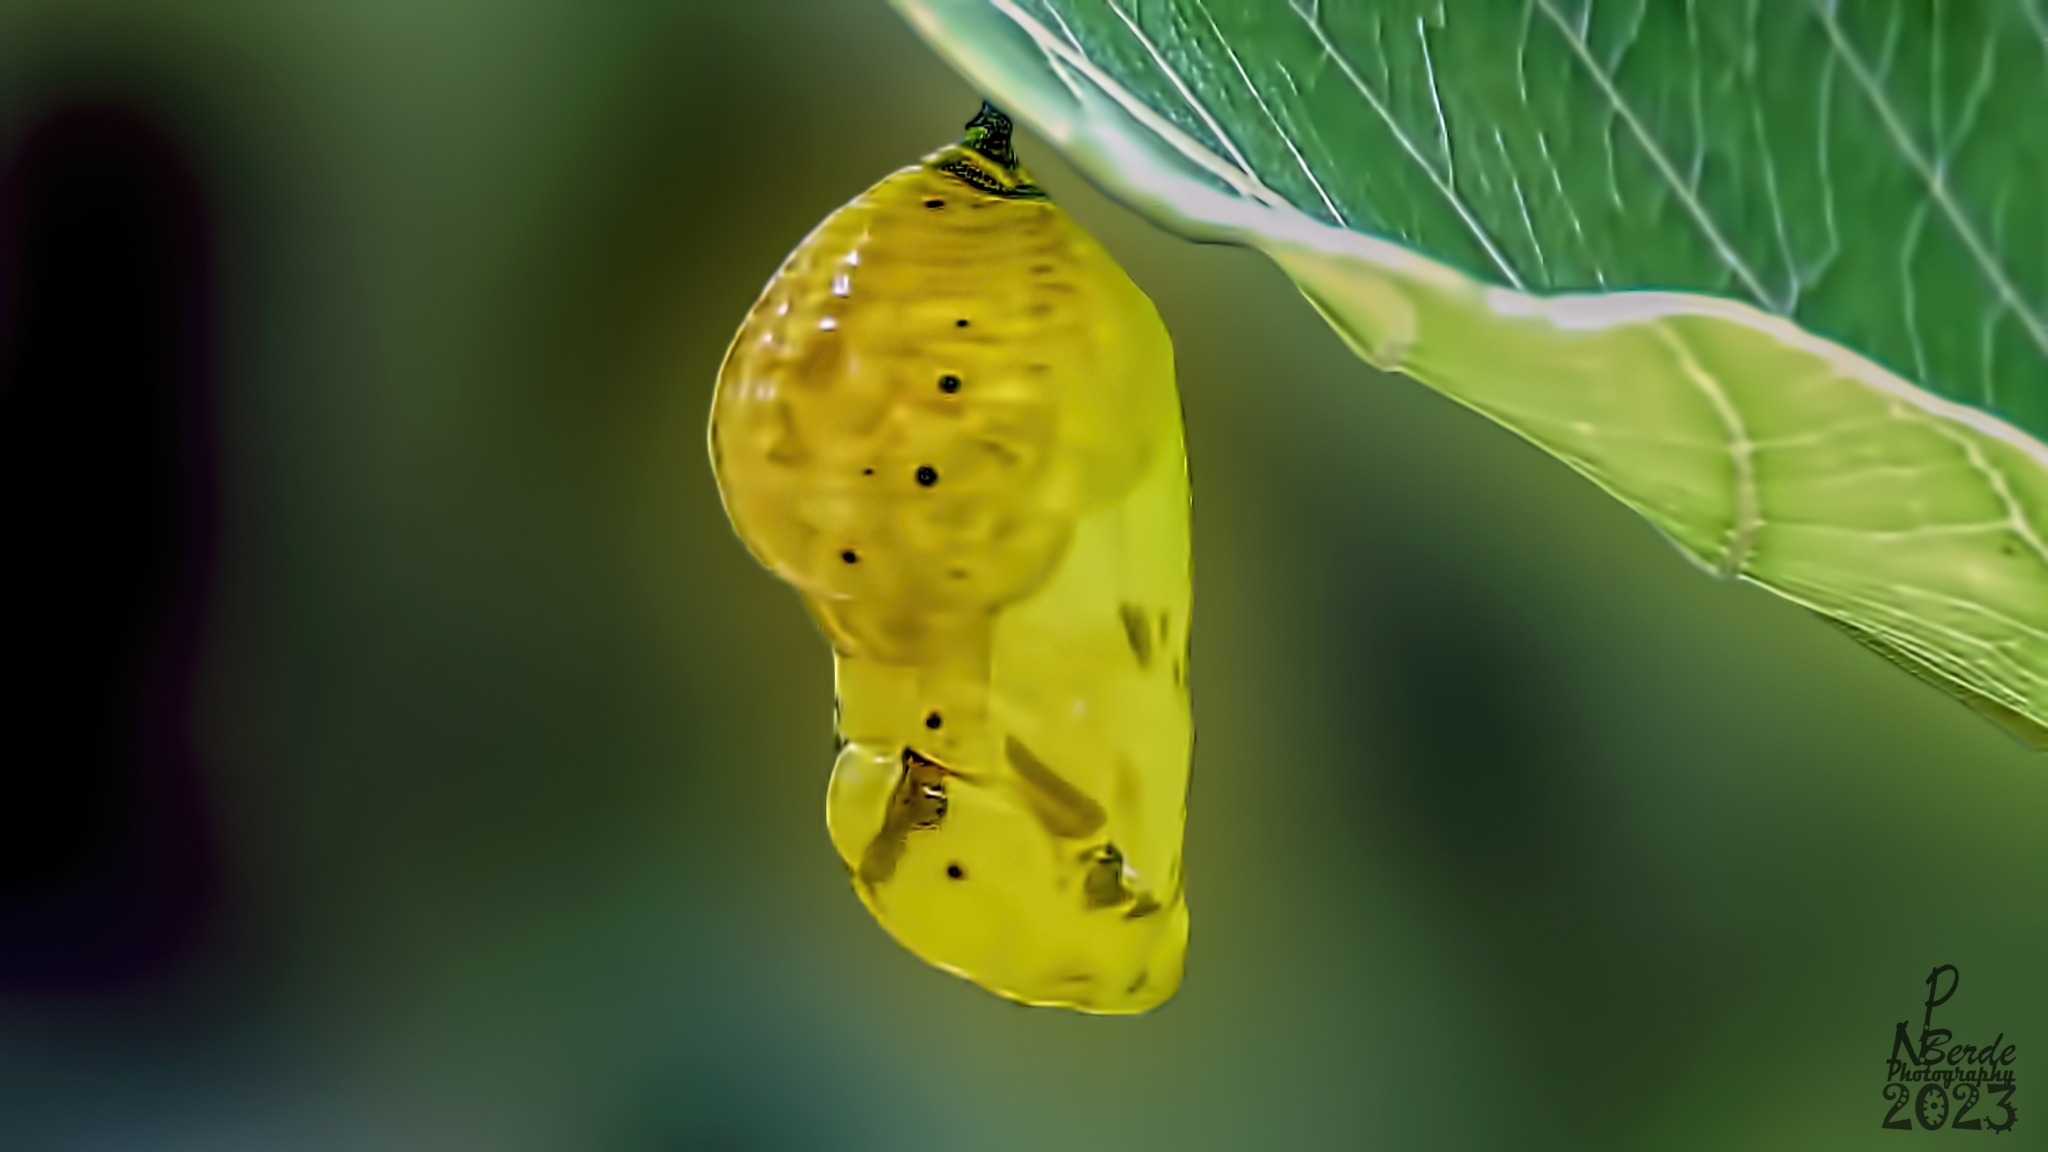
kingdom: Animalia
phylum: Arthropoda
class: Insecta
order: Lepidoptera
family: Nymphalidae
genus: Euploea
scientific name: Euploea core
